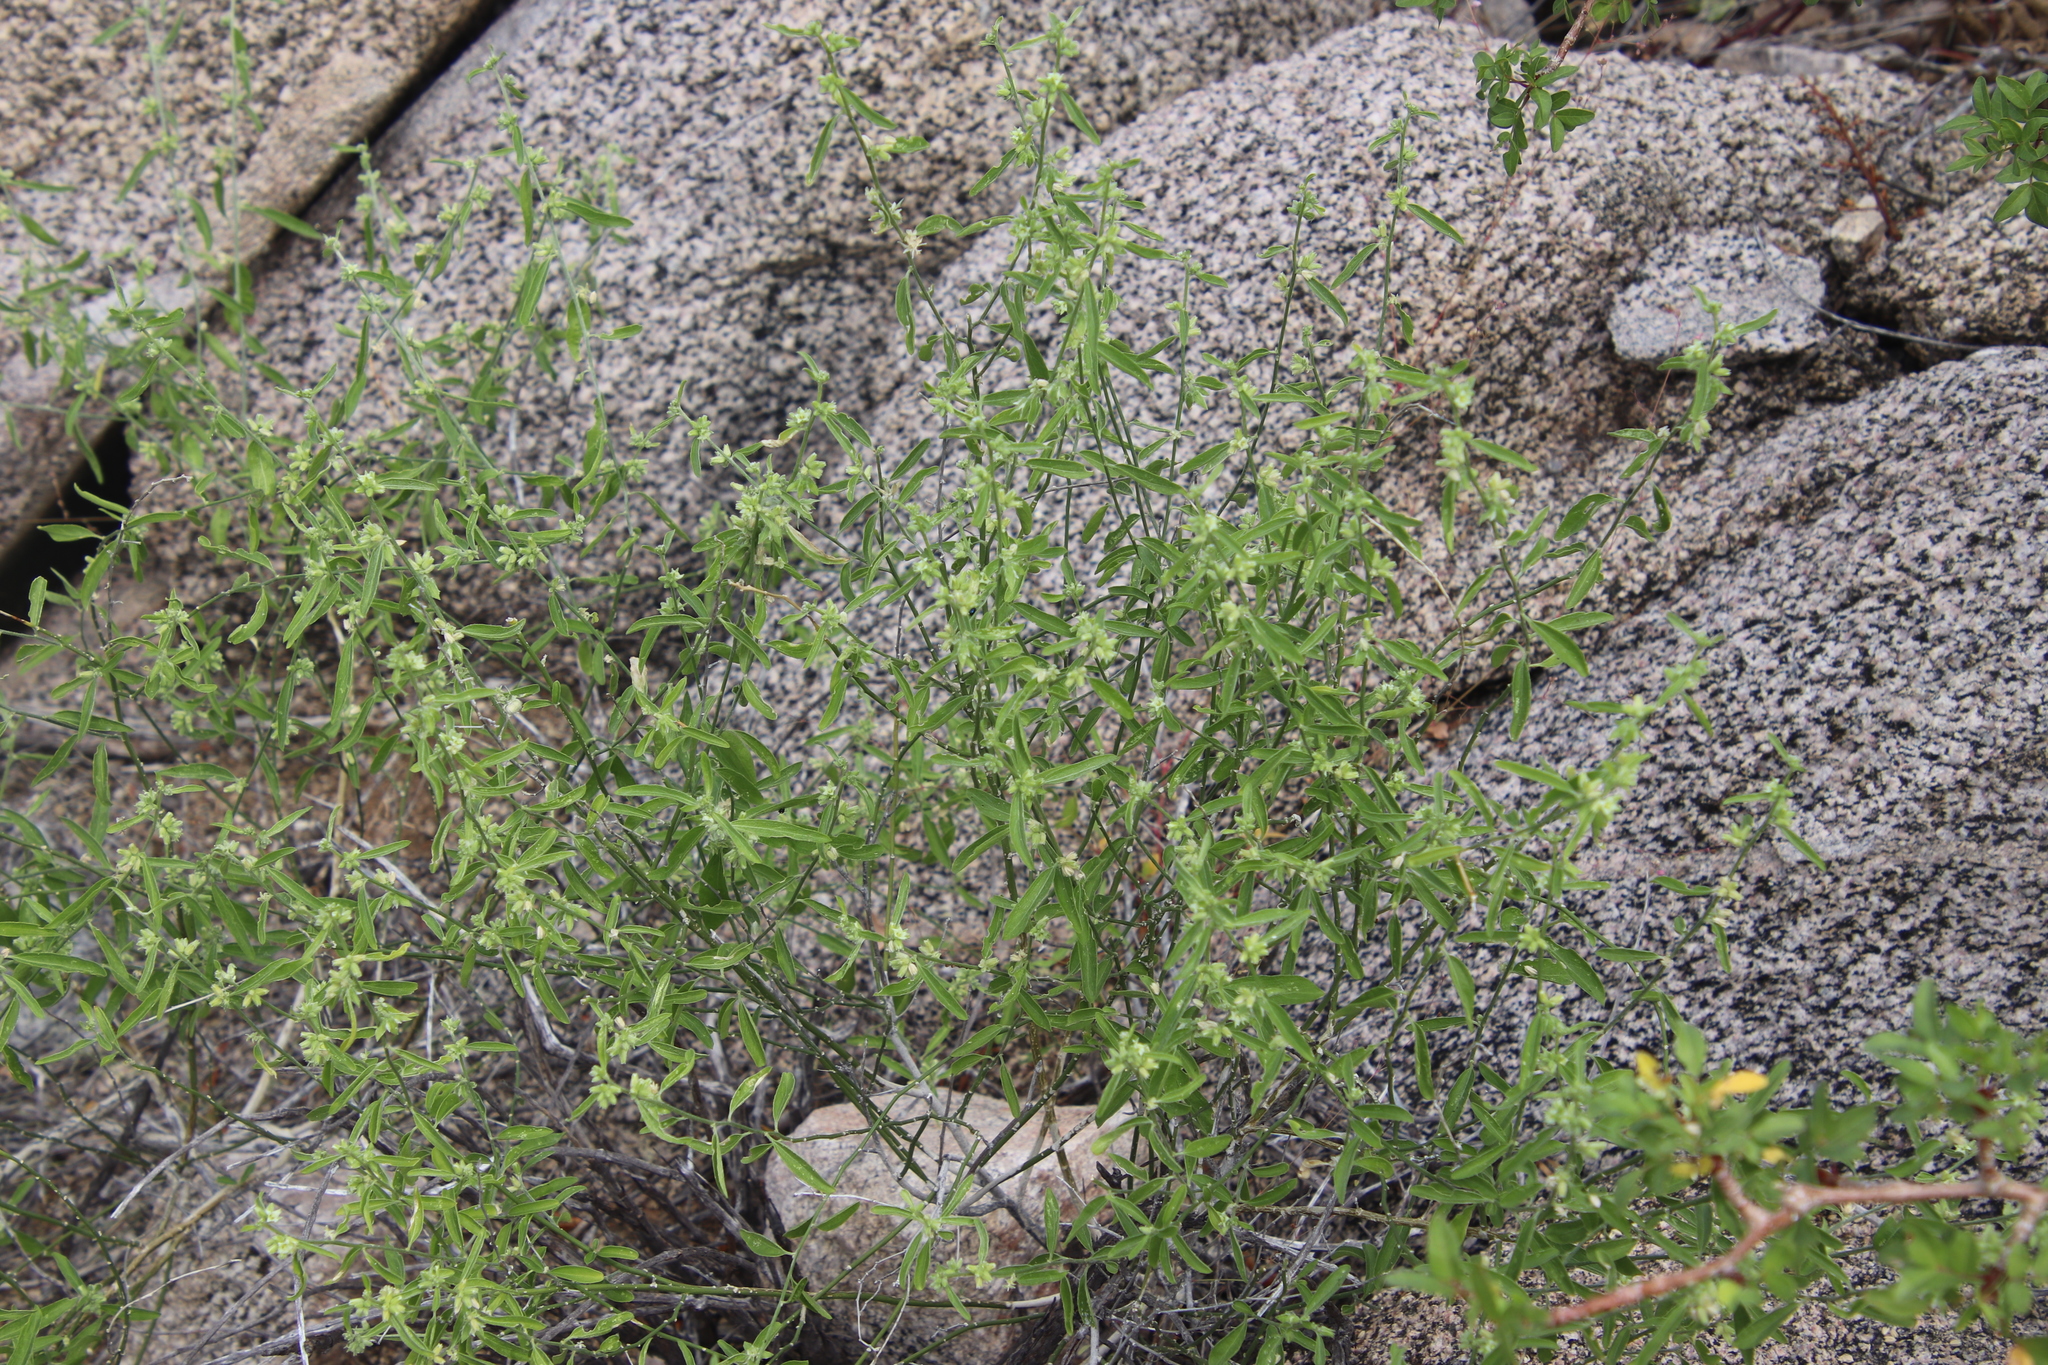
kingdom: Plantae
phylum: Tracheophyta
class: Magnoliopsida
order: Malpighiales
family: Euphorbiaceae
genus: Ditaxis
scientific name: Ditaxis lanceolata
